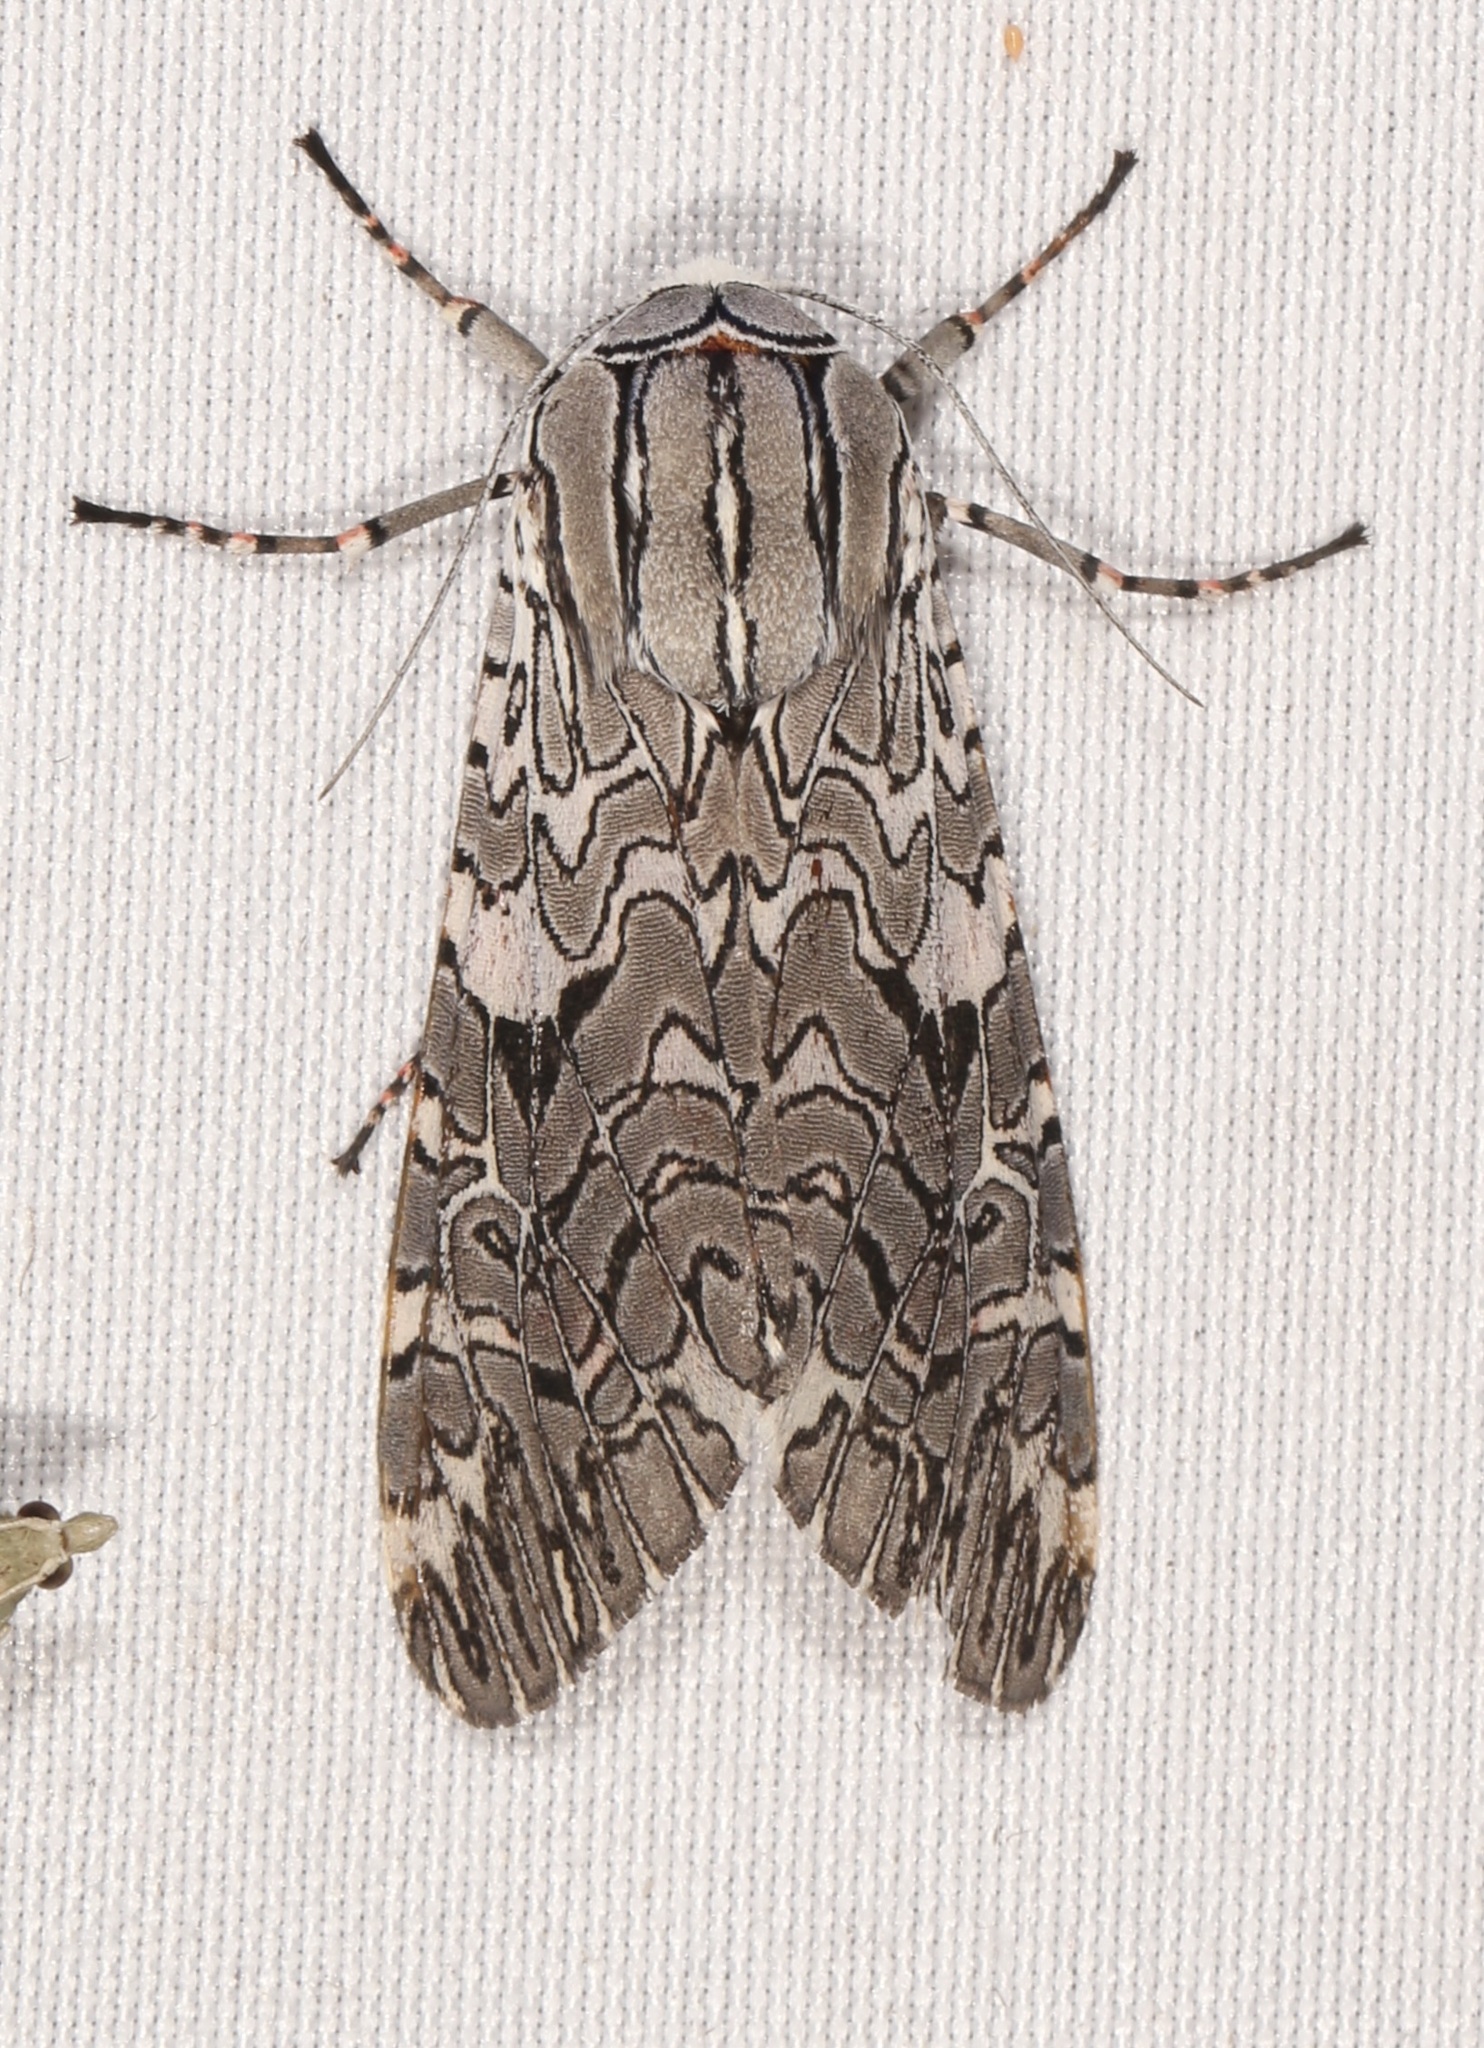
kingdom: Animalia
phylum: Arthropoda
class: Insecta
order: Lepidoptera
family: Erebidae
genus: Arachnis
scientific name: Arachnis picta
